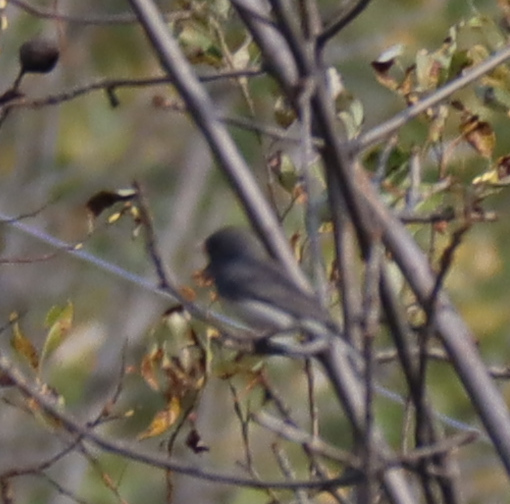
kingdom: Animalia
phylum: Chordata
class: Aves
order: Passeriformes
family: Passerellidae
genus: Junco
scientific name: Junco hyemalis
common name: Dark-eyed junco
